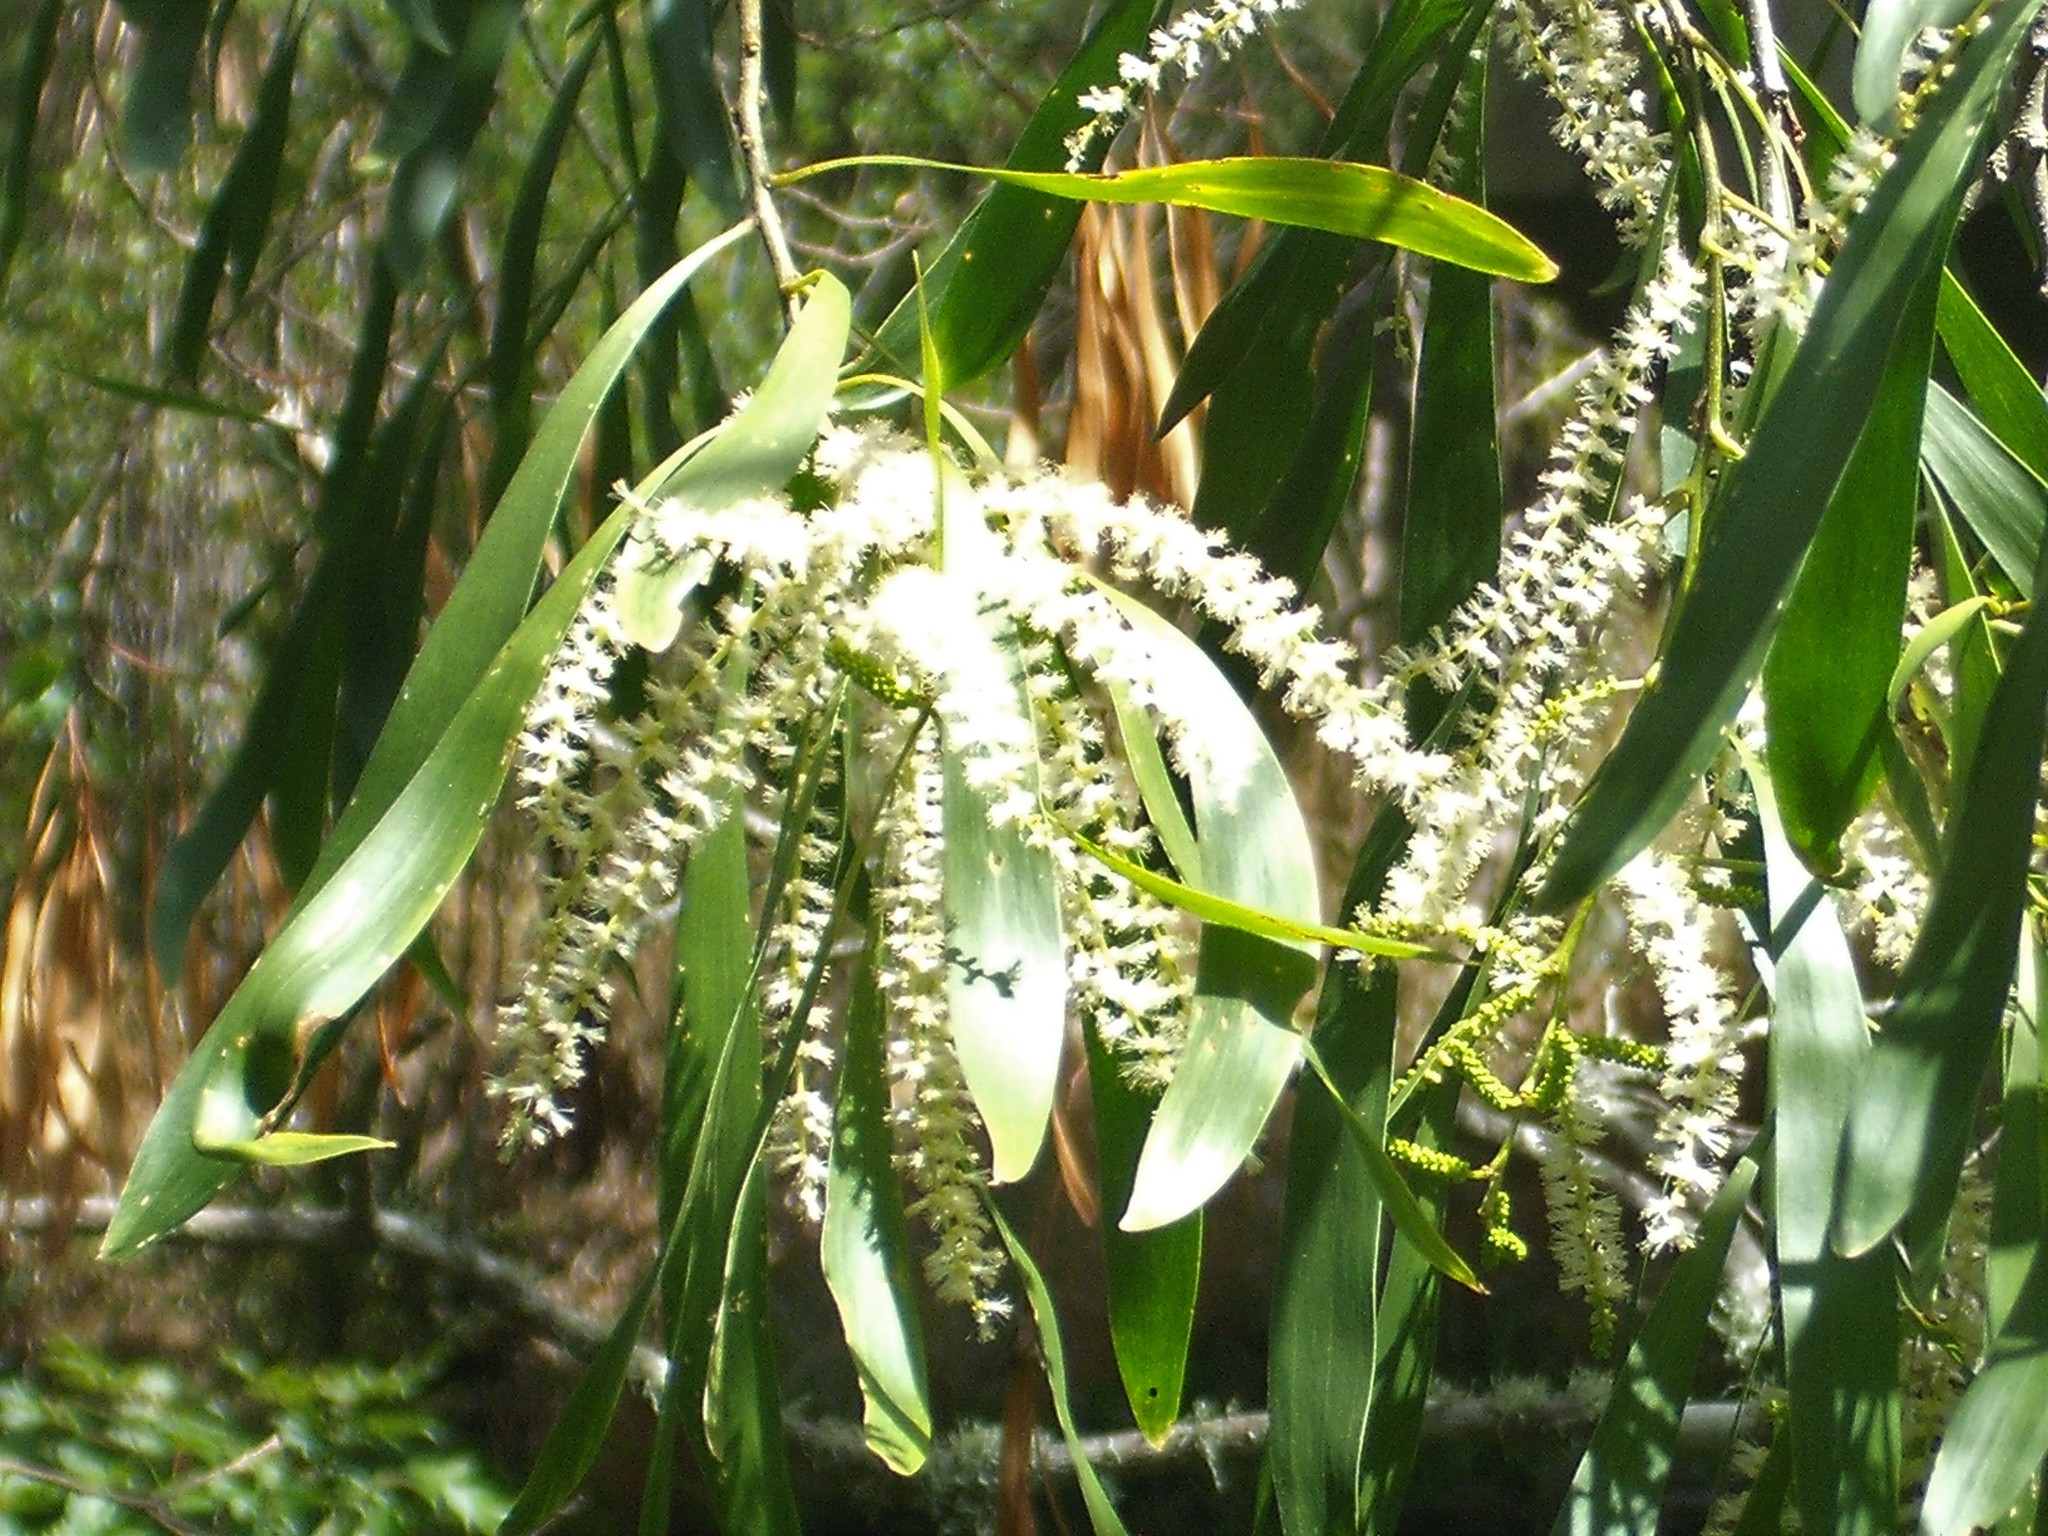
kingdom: Plantae
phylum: Tracheophyta
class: Magnoliopsida
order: Fabales
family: Fabaceae
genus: Acacia
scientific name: Acacia maidenii
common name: Maiden's wattle
